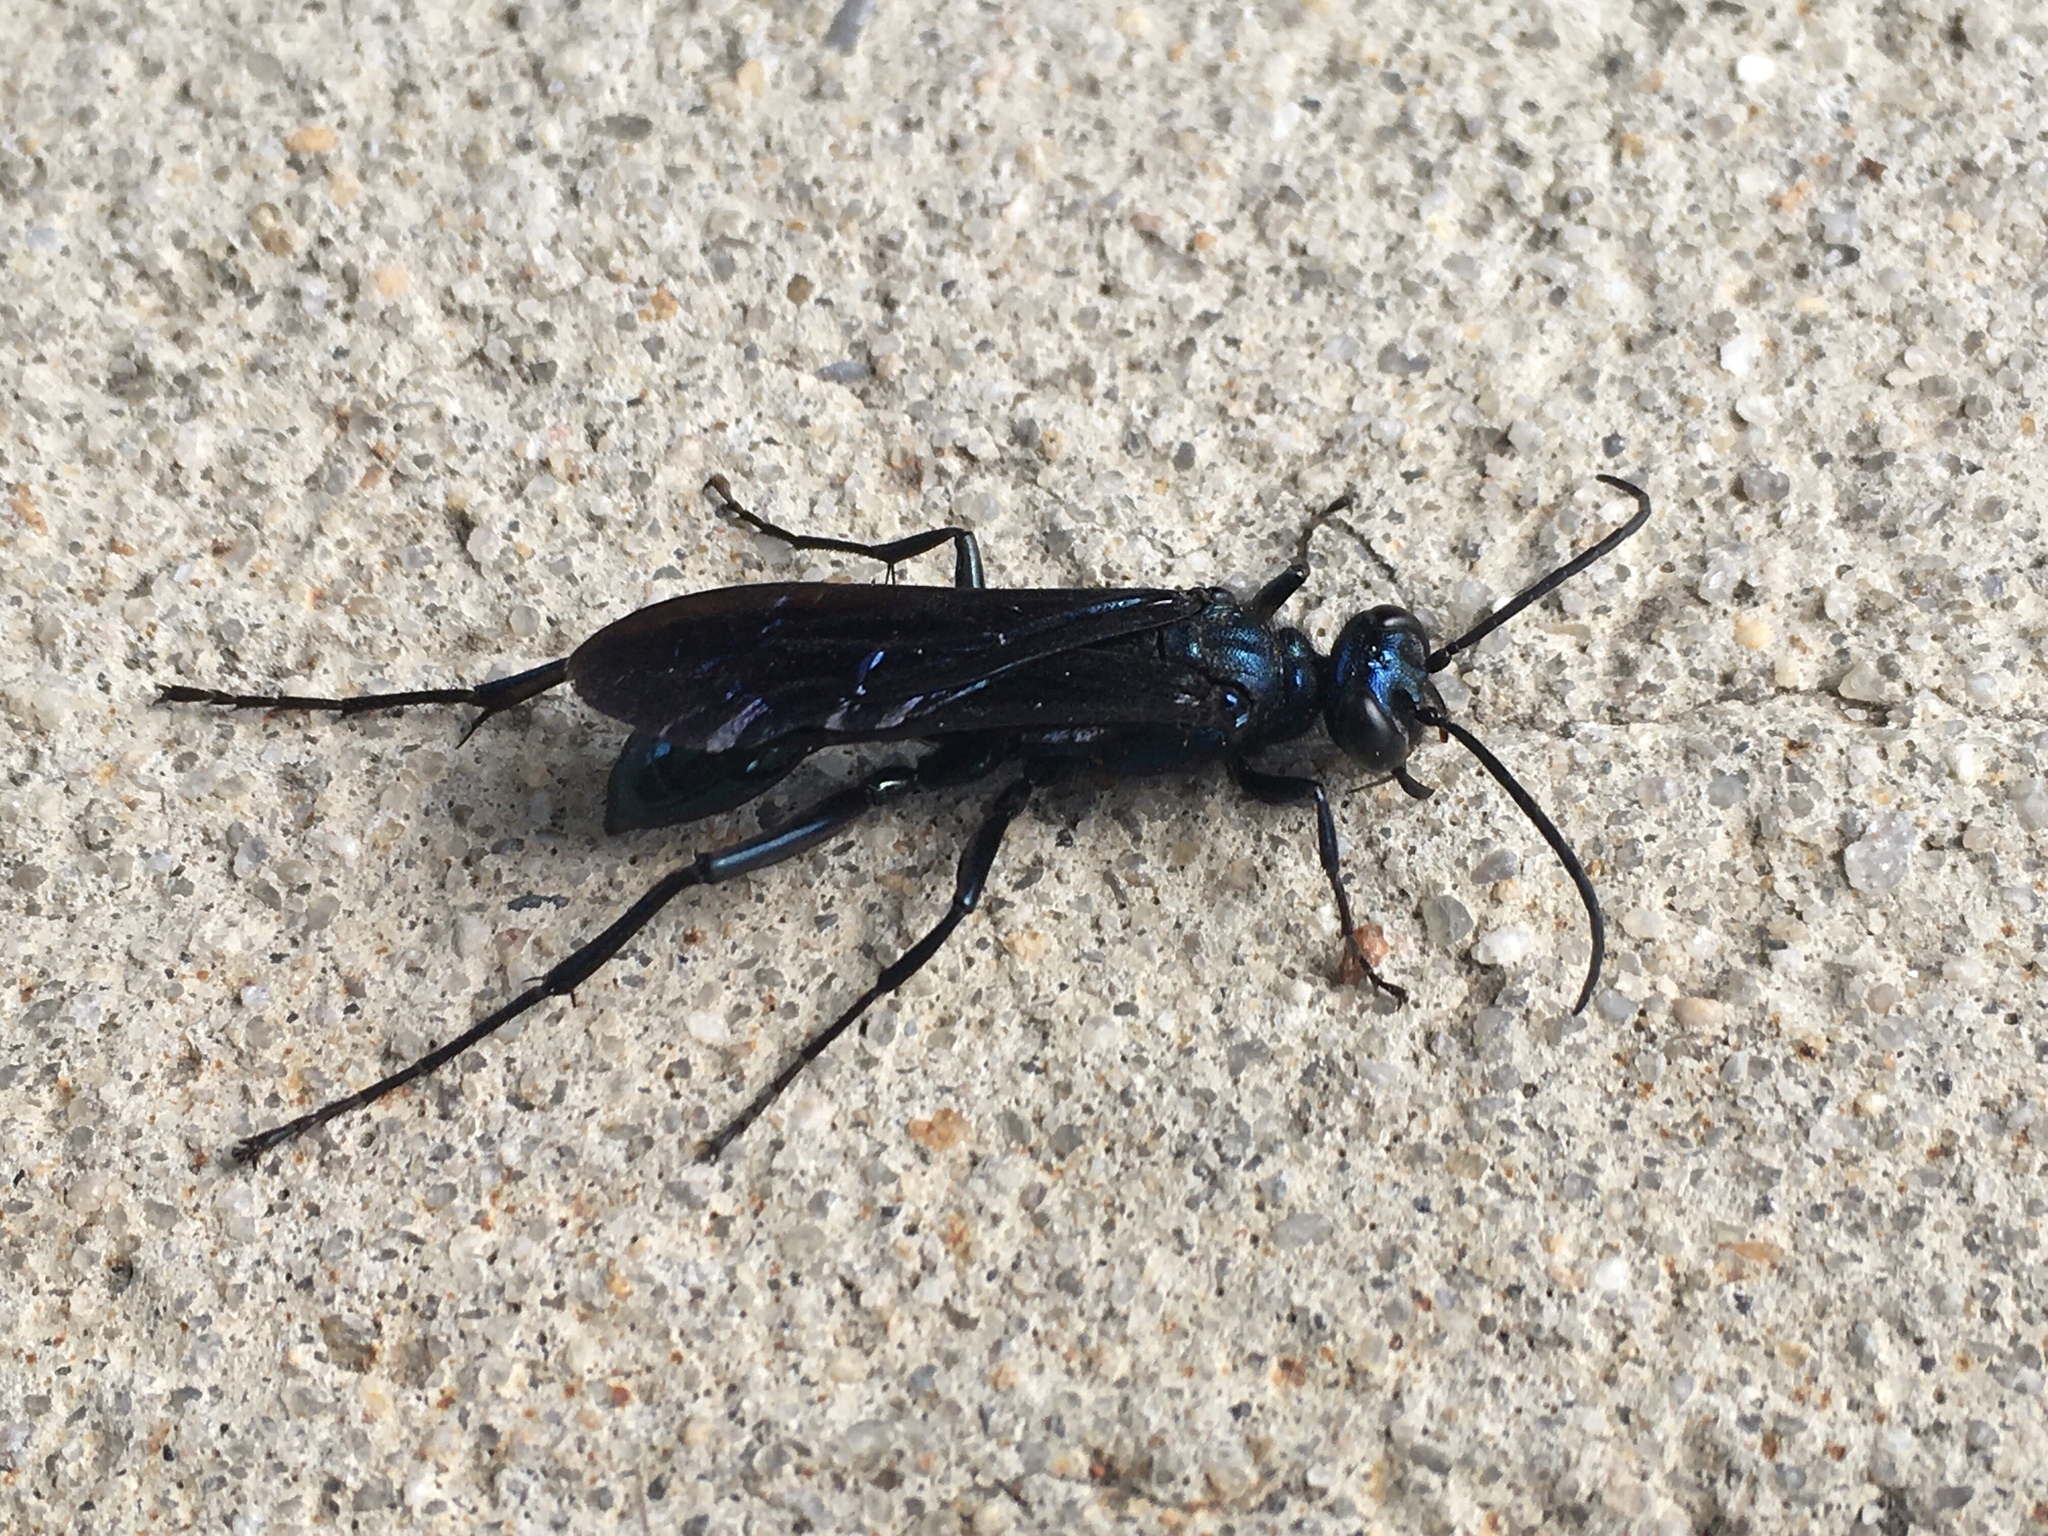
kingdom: Animalia
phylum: Arthropoda
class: Insecta
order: Hymenoptera
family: Sphecidae
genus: Chalybion
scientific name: Chalybion californicum
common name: Mud dauber
